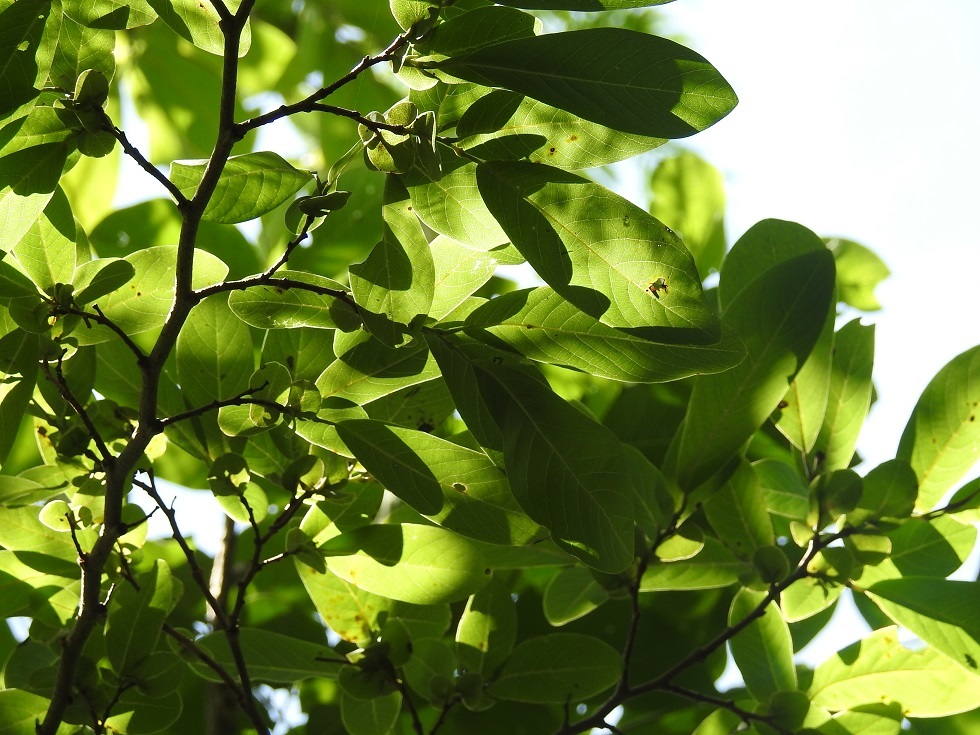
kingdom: Plantae
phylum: Tracheophyta
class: Magnoliopsida
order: Ericales
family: Ebenaceae
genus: Diospyros
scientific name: Diospyros salicifolia
